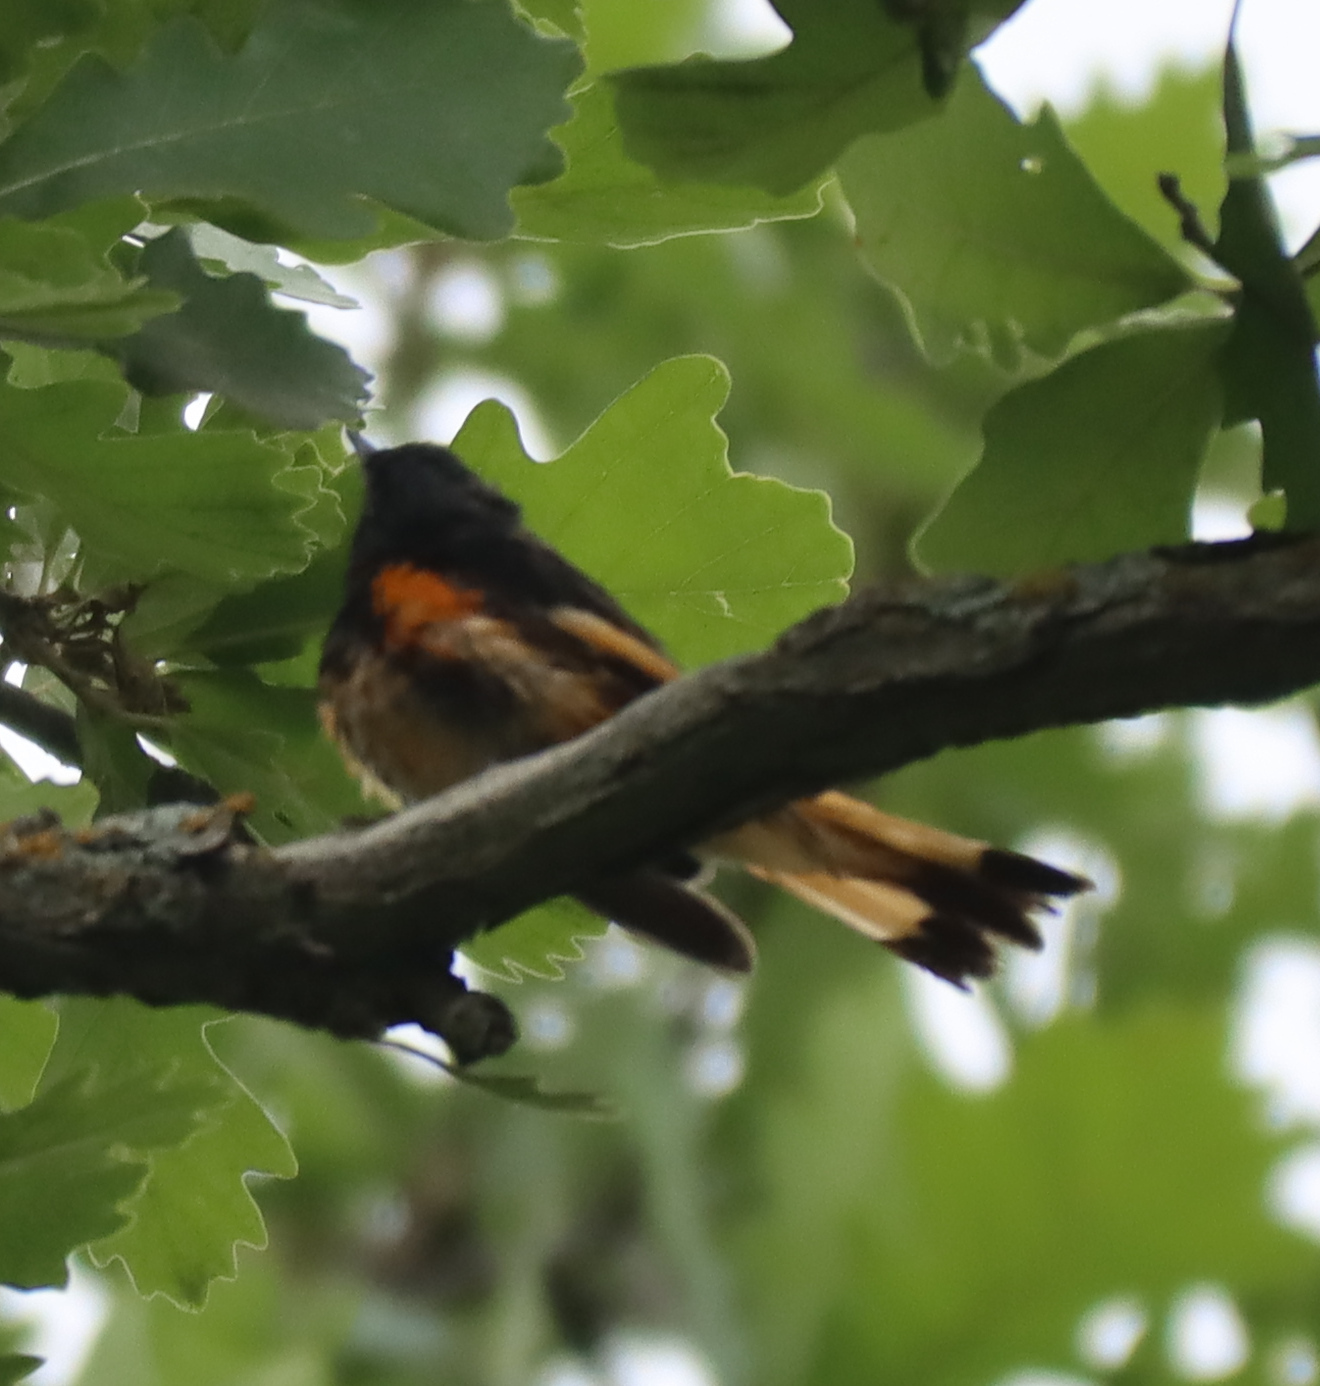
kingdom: Animalia
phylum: Chordata
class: Aves
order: Passeriformes
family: Parulidae
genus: Setophaga
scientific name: Setophaga ruticilla
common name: American redstart
